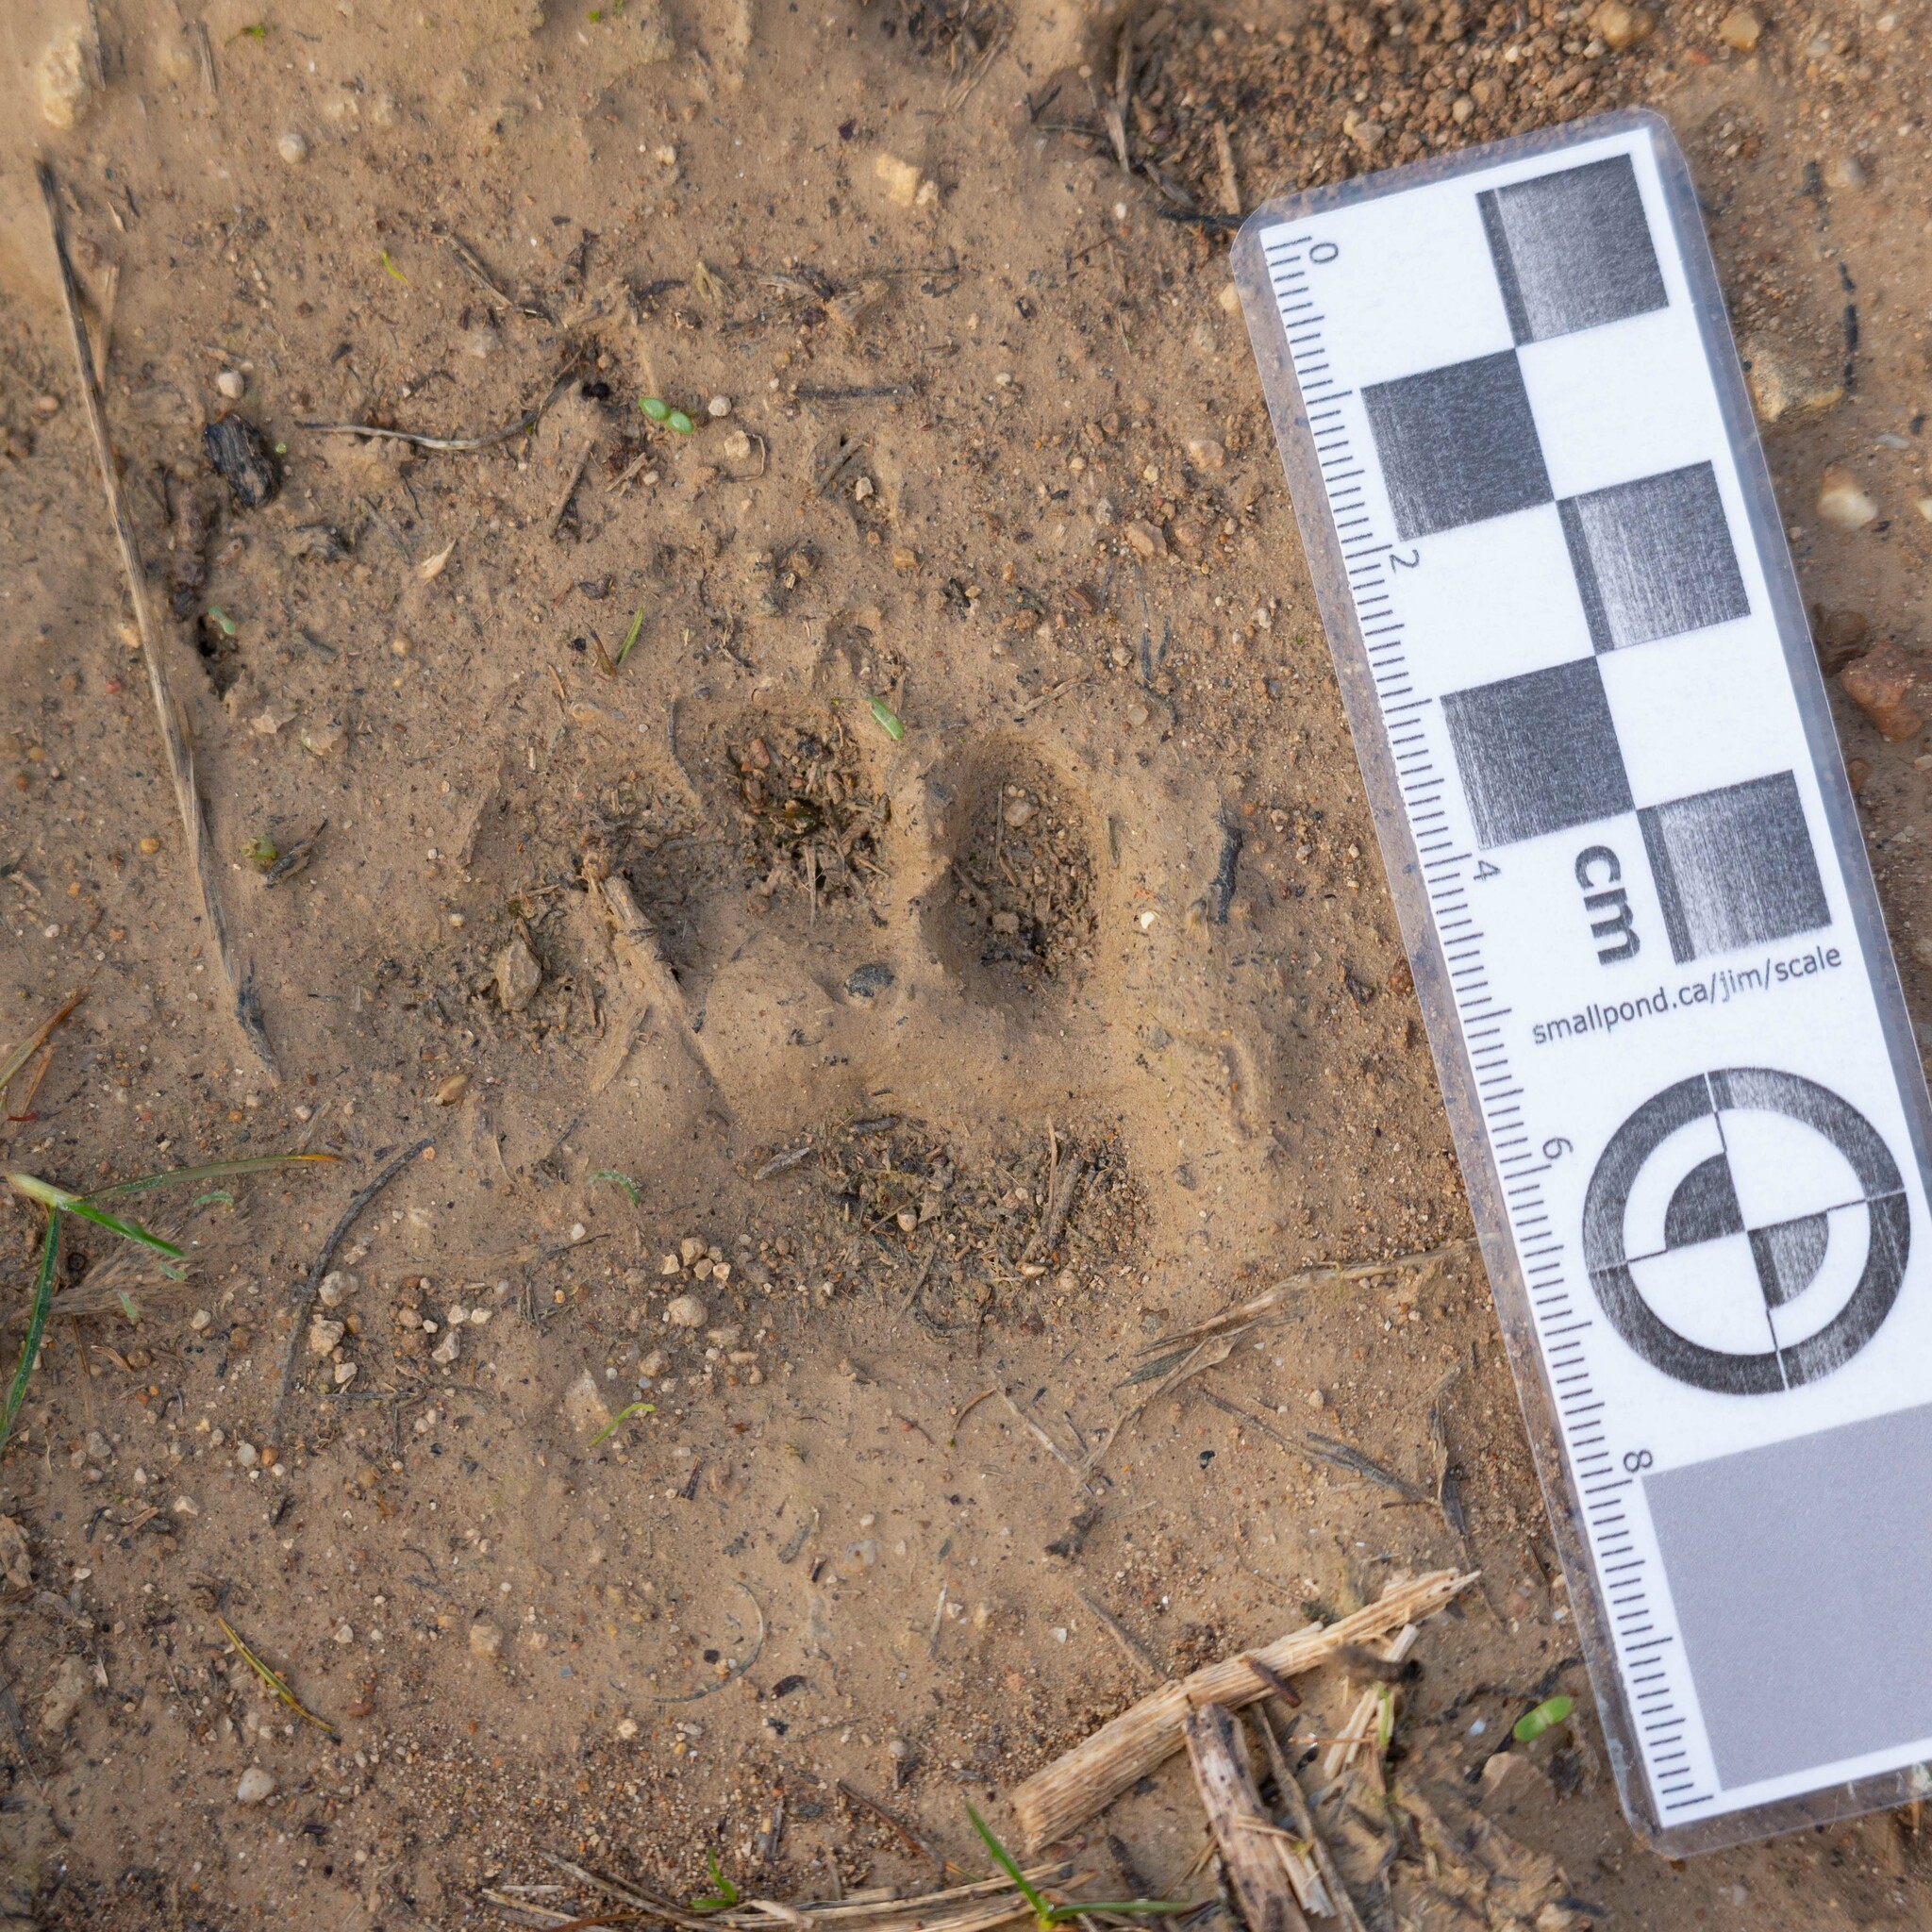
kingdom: Animalia
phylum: Chordata
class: Mammalia
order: Carnivora
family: Mustelidae
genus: Meles
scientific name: Meles meles
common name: Eurasian badger
